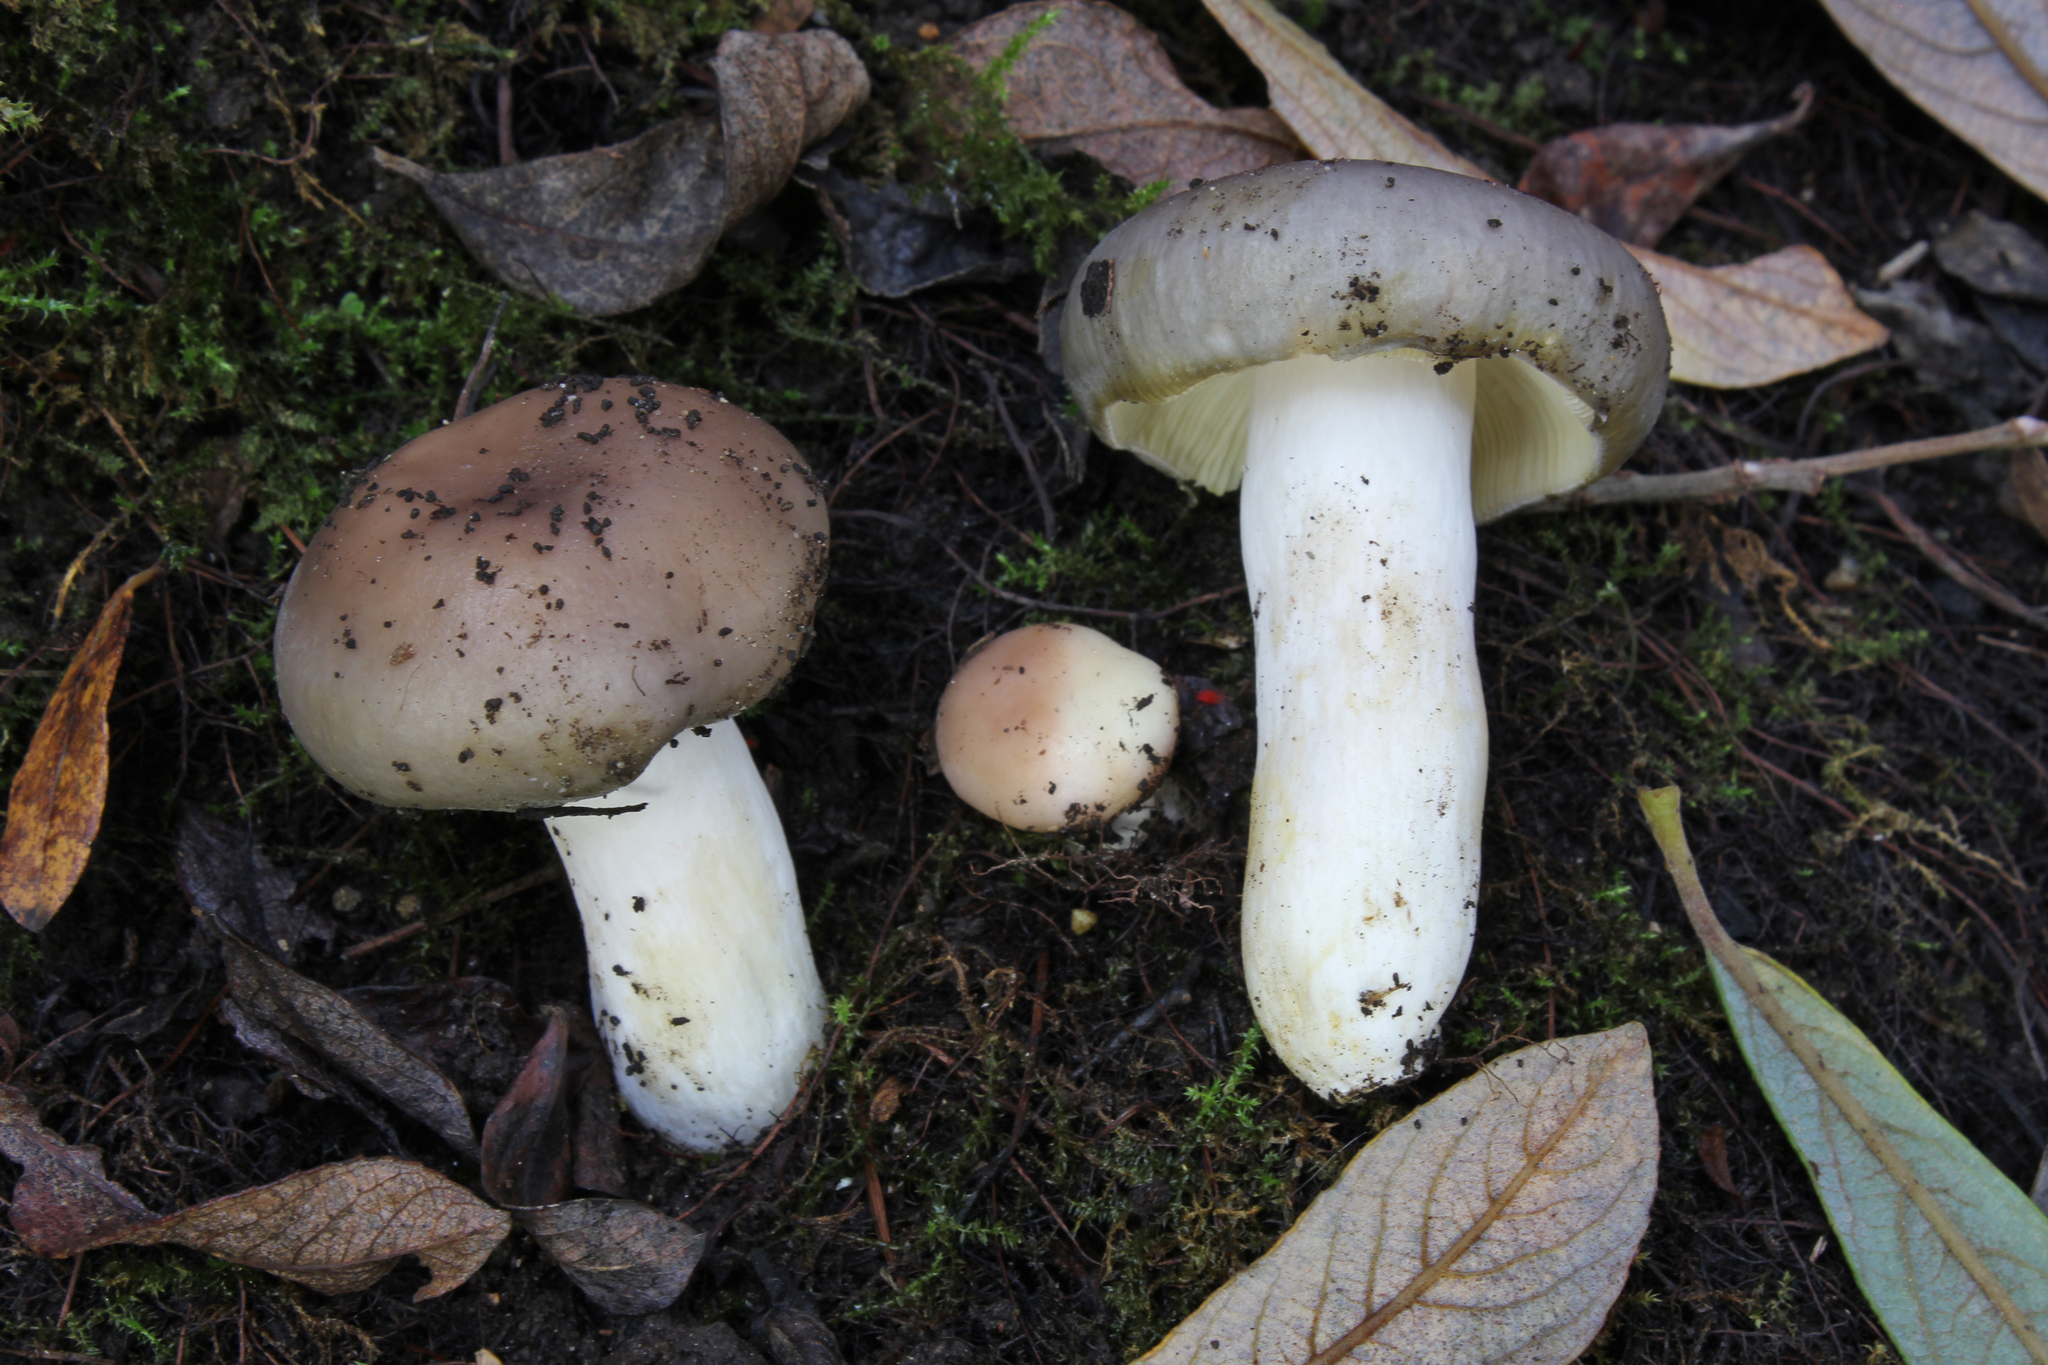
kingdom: Fungi
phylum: Basidiomycota
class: Agaricomycetes
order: Russulales
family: Russulaceae
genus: Russula
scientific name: Russula medullata
